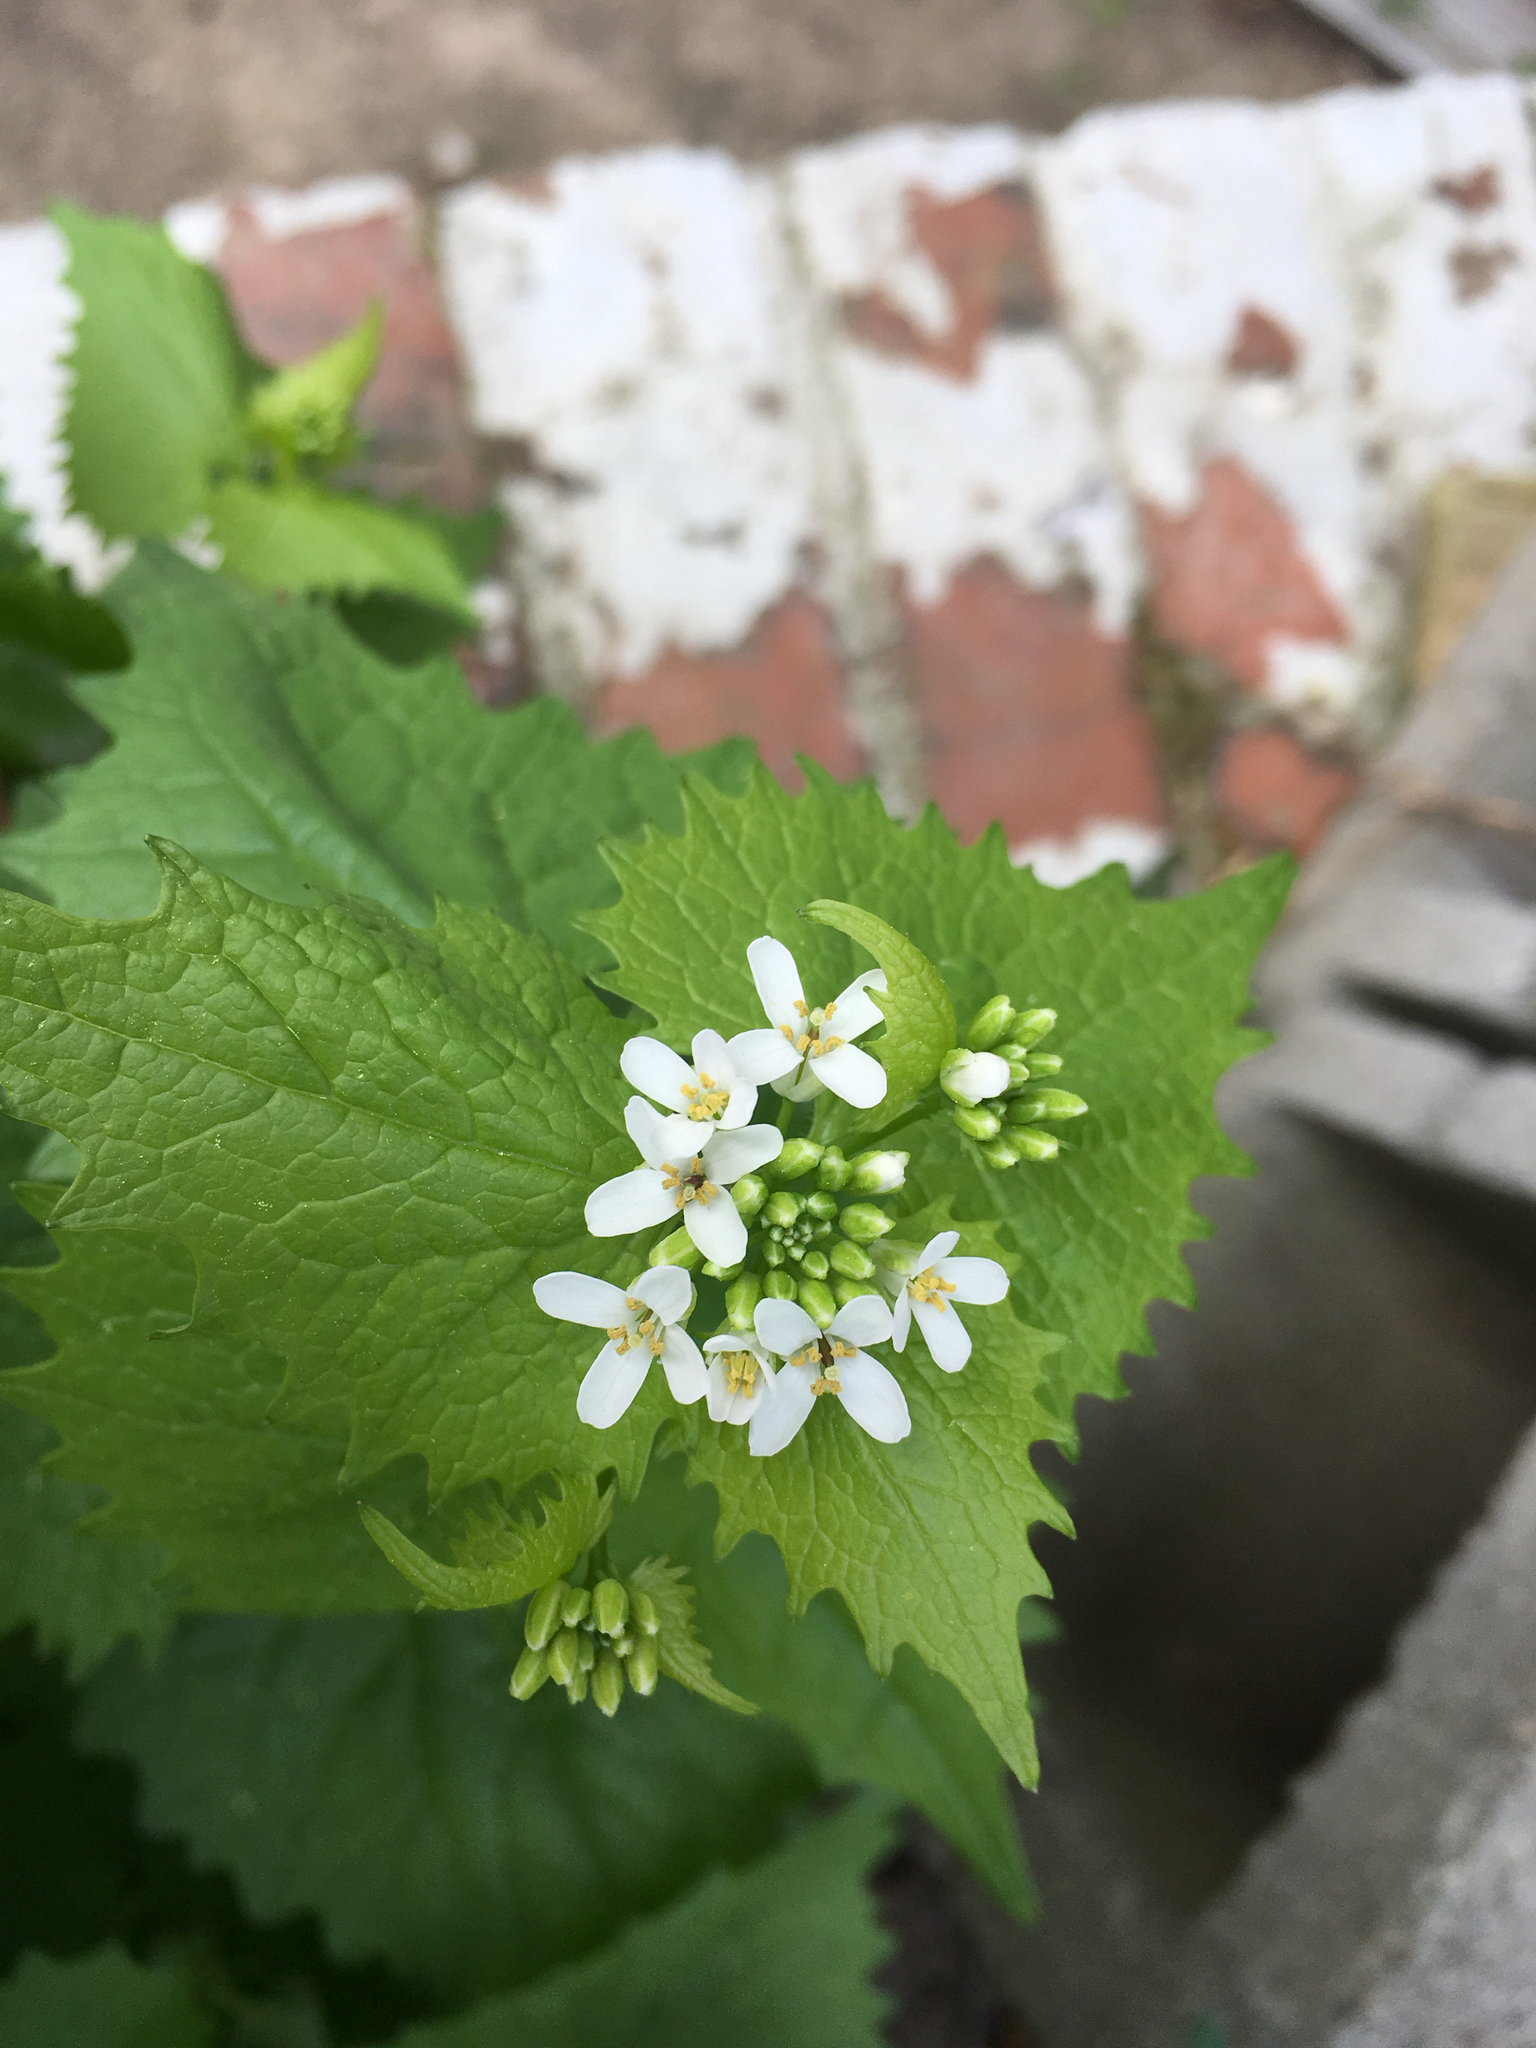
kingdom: Plantae
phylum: Tracheophyta
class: Magnoliopsida
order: Brassicales
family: Brassicaceae
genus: Alliaria
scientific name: Alliaria petiolata
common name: Garlic mustard
